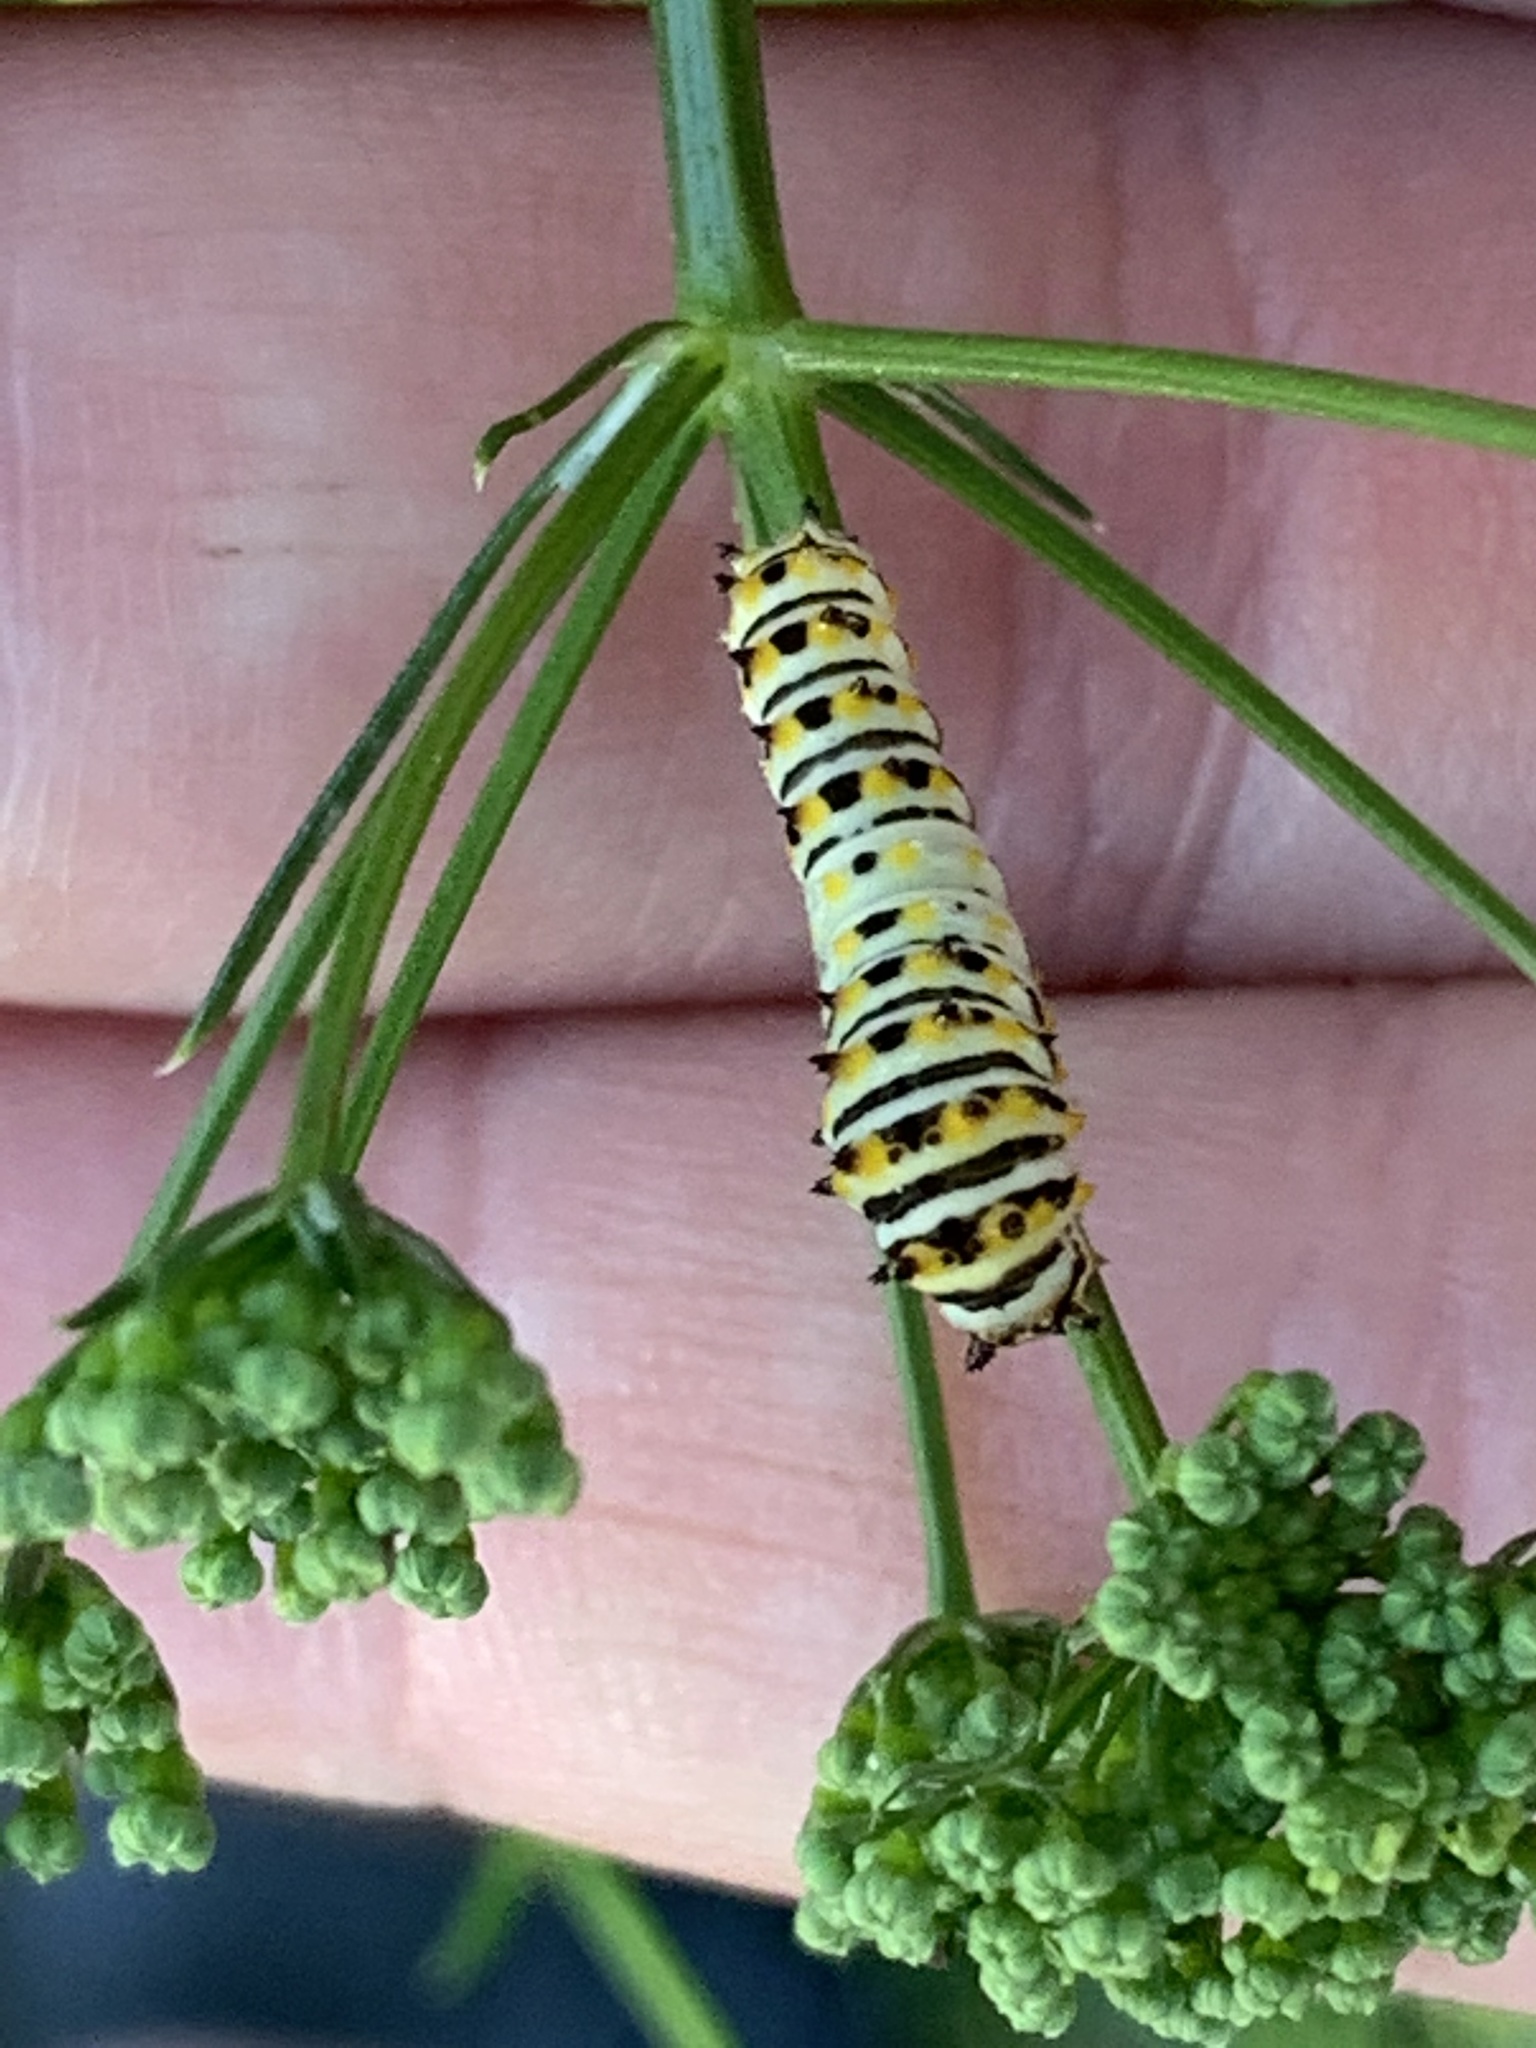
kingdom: Animalia
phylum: Arthropoda
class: Insecta
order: Lepidoptera
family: Papilionidae
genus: Papilio
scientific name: Papilio polyxenes
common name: Black swallowtail
